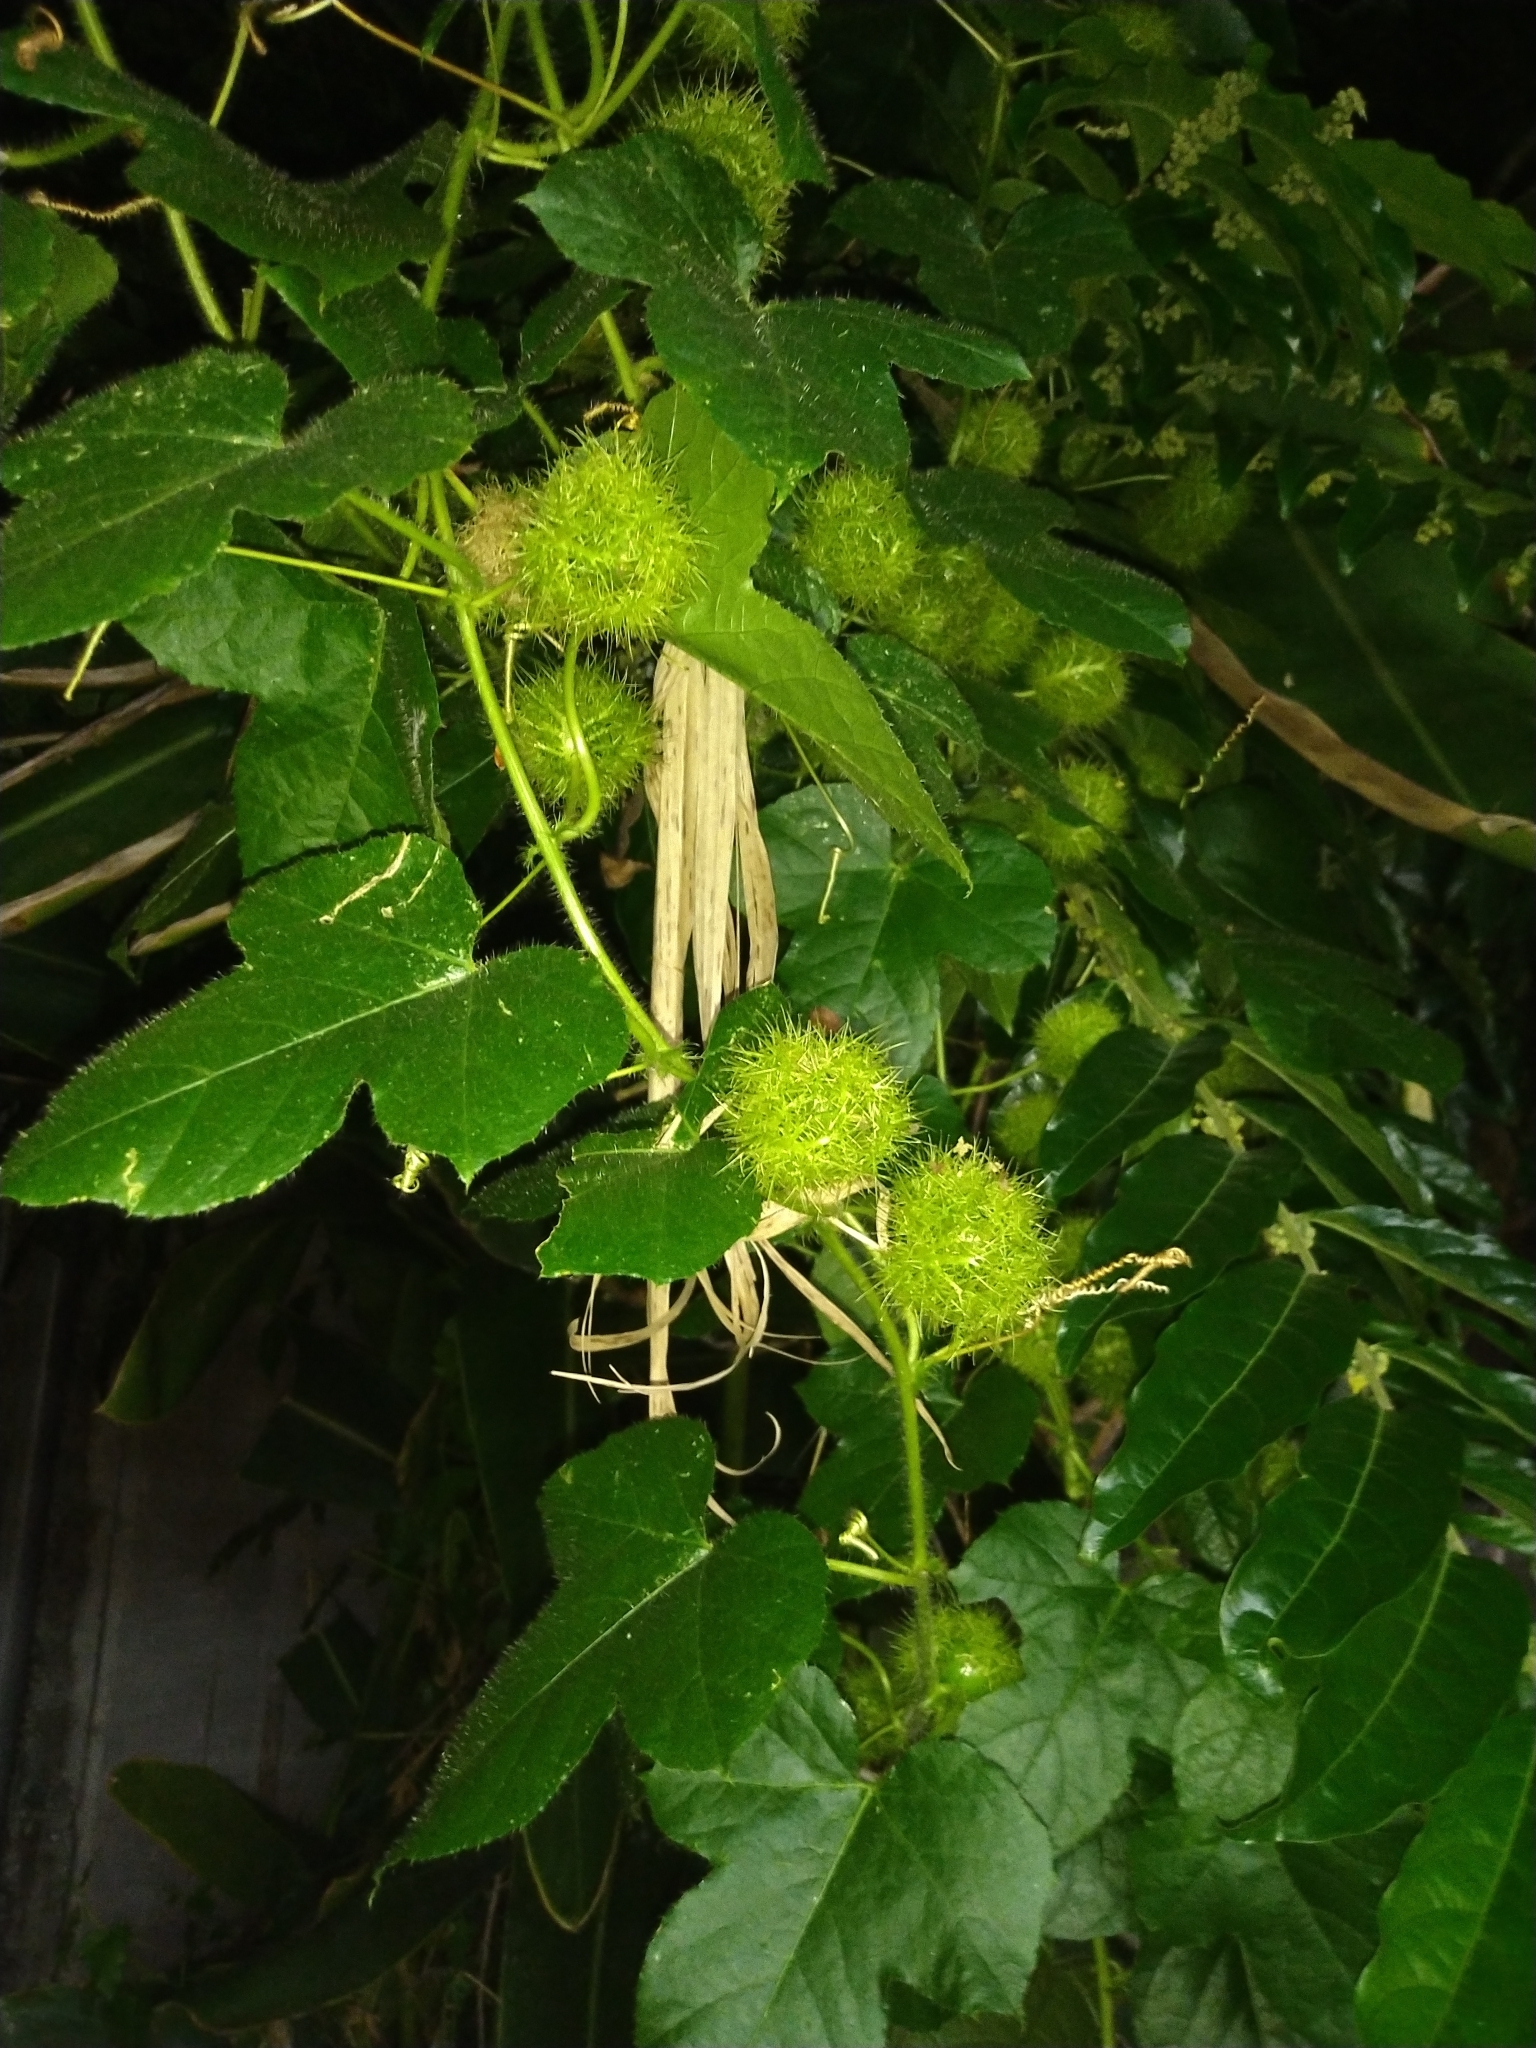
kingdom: Plantae
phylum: Tracheophyta
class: Magnoliopsida
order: Malpighiales
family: Passifloraceae
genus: Passiflora
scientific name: Passiflora vesicaria
